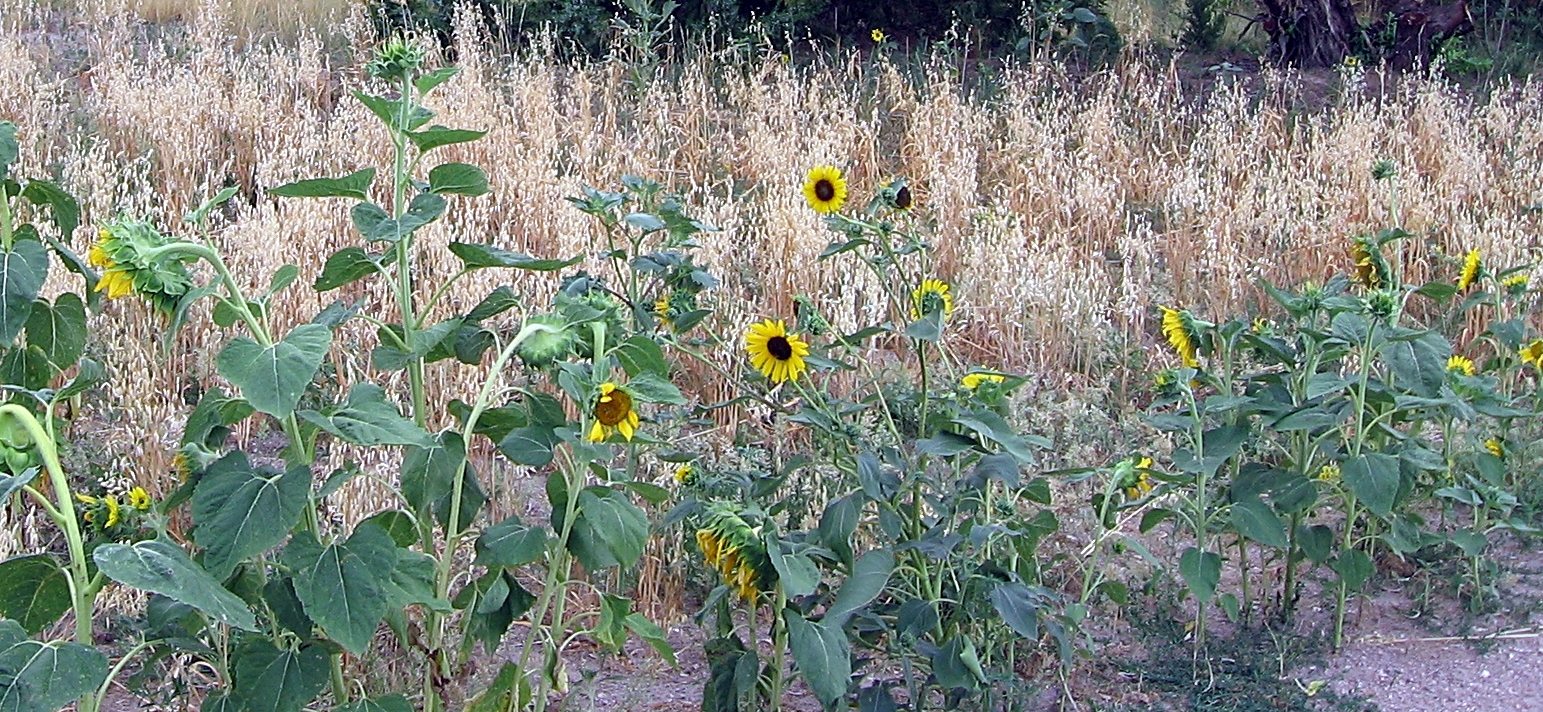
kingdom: Plantae
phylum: Tracheophyta
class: Magnoliopsida
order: Asterales
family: Asteraceae
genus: Helianthus
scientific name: Helianthus annuus
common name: Sunflower
